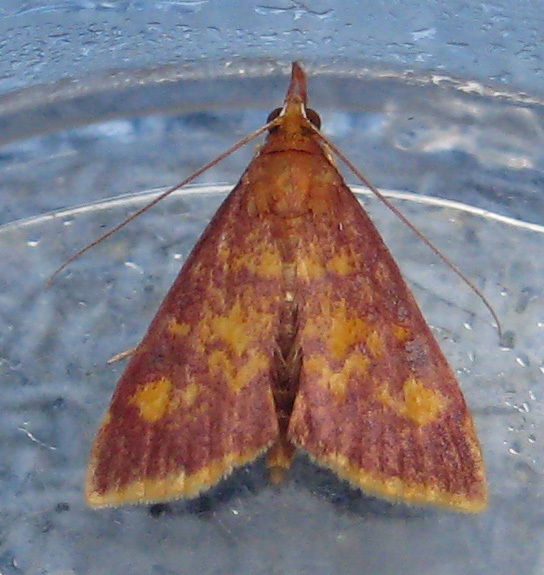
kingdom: Animalia
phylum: Arthropoda
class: Insecta
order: Lepidoptera
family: Crambidae
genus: Pyrausta
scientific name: Pyrausta acrionalis
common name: Mint-loving pyrausta moth
